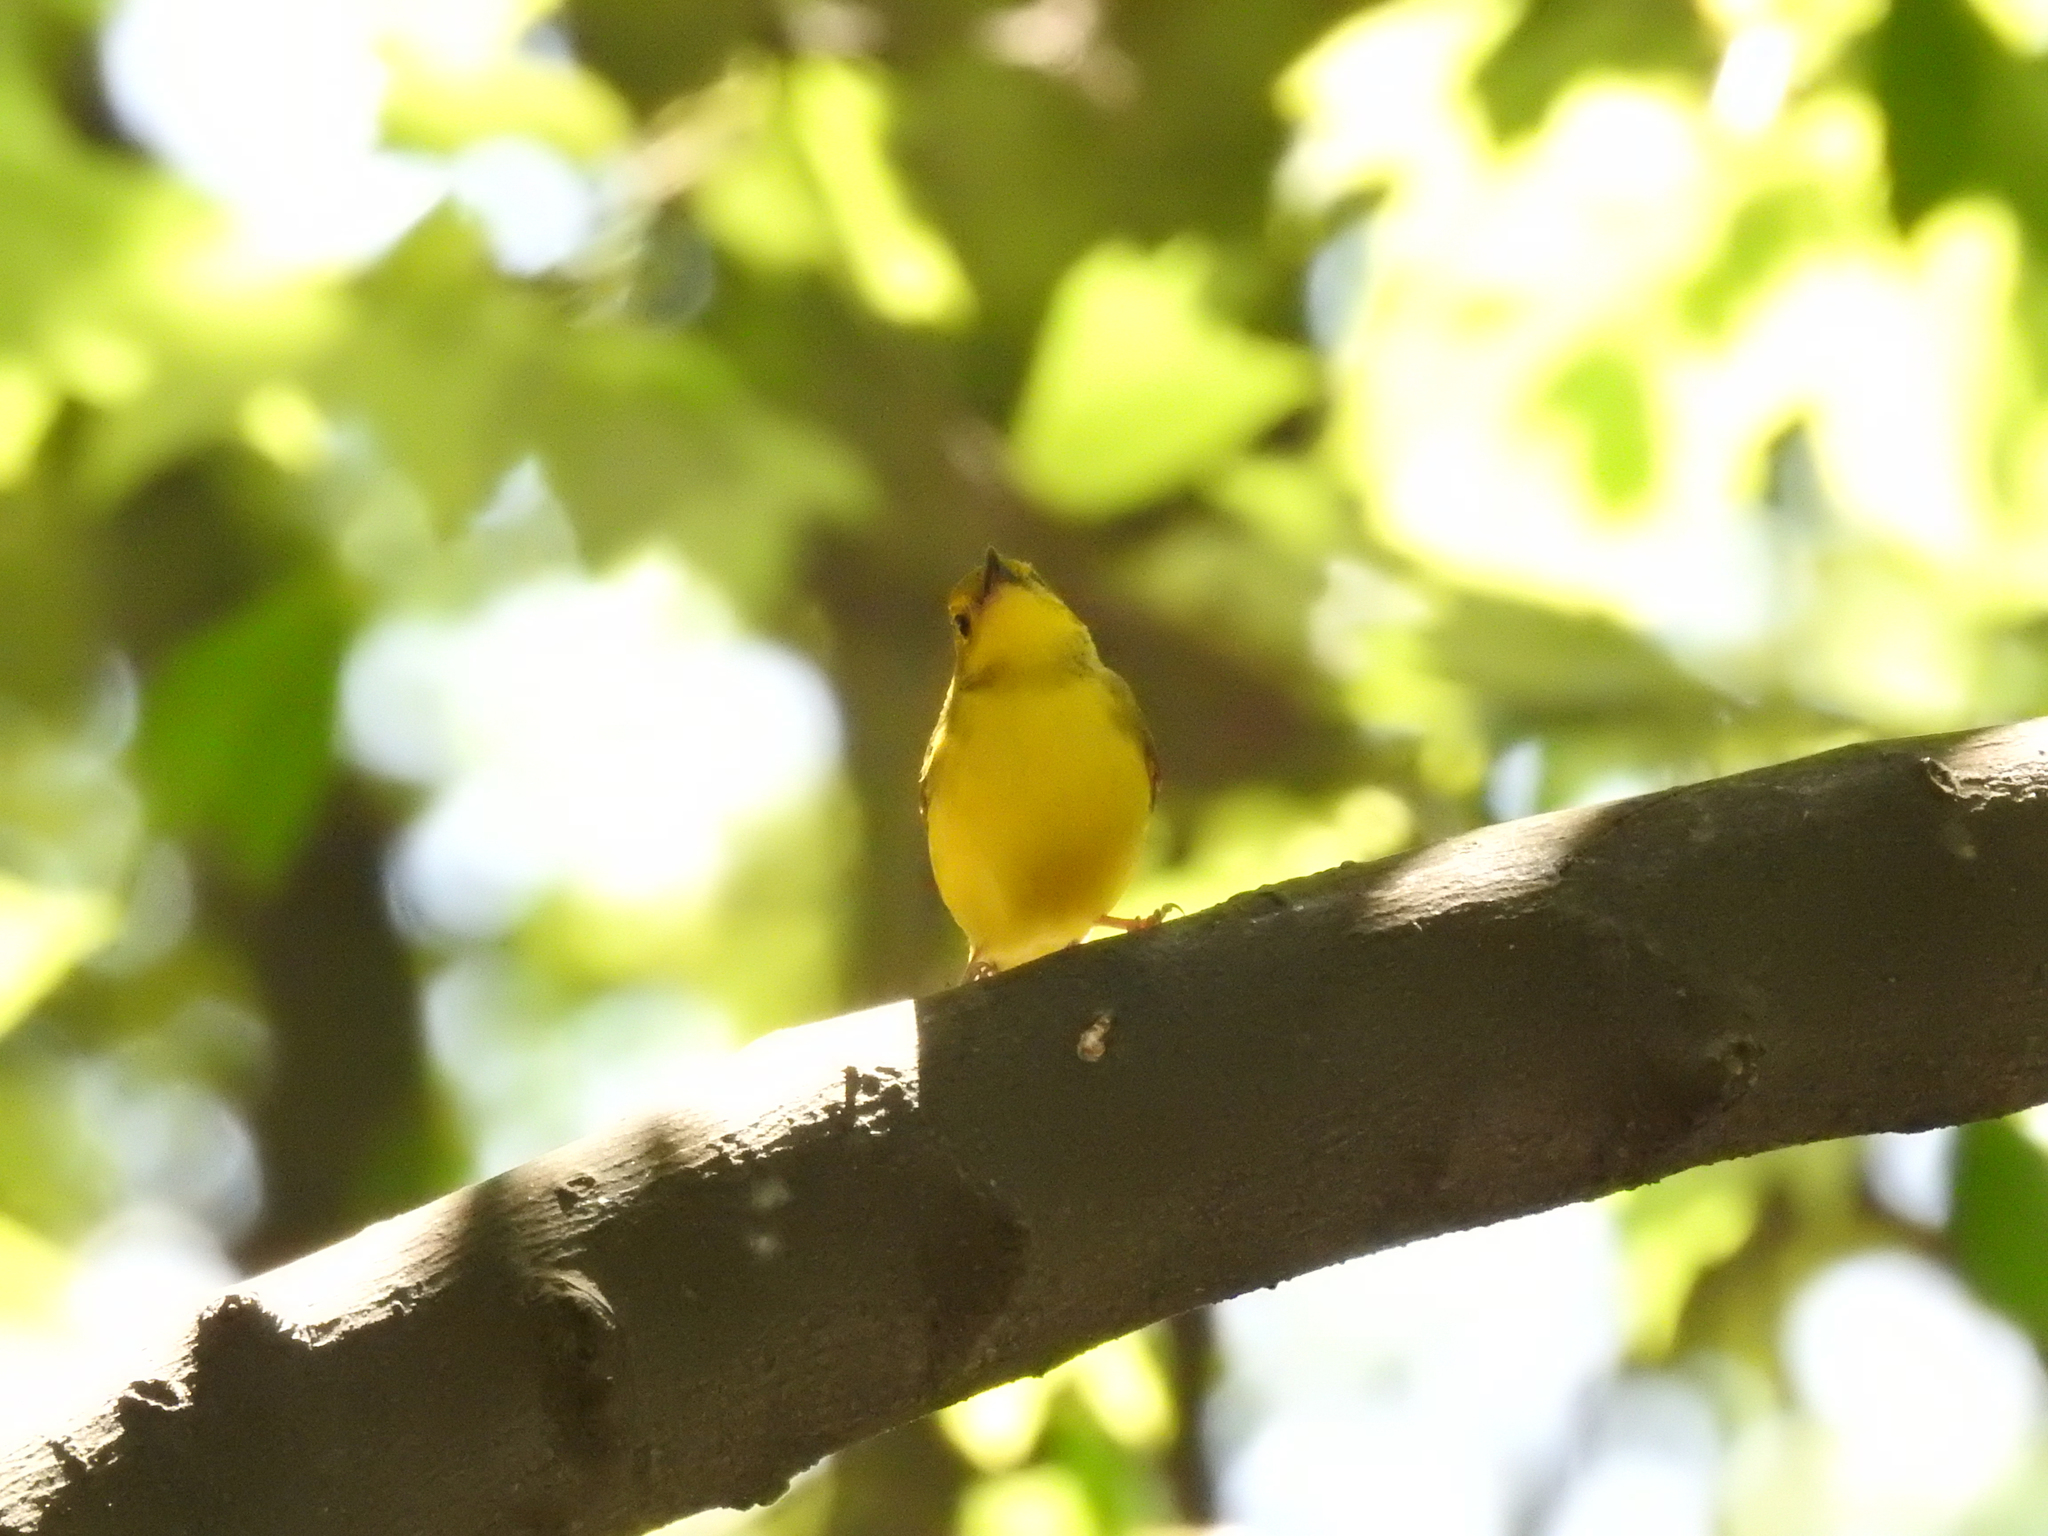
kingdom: Animalia
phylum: Chordata
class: Aves
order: Passeriformes
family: Parulidae
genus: Setophaga
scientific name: Setophaga citrina
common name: Hooded warbler
